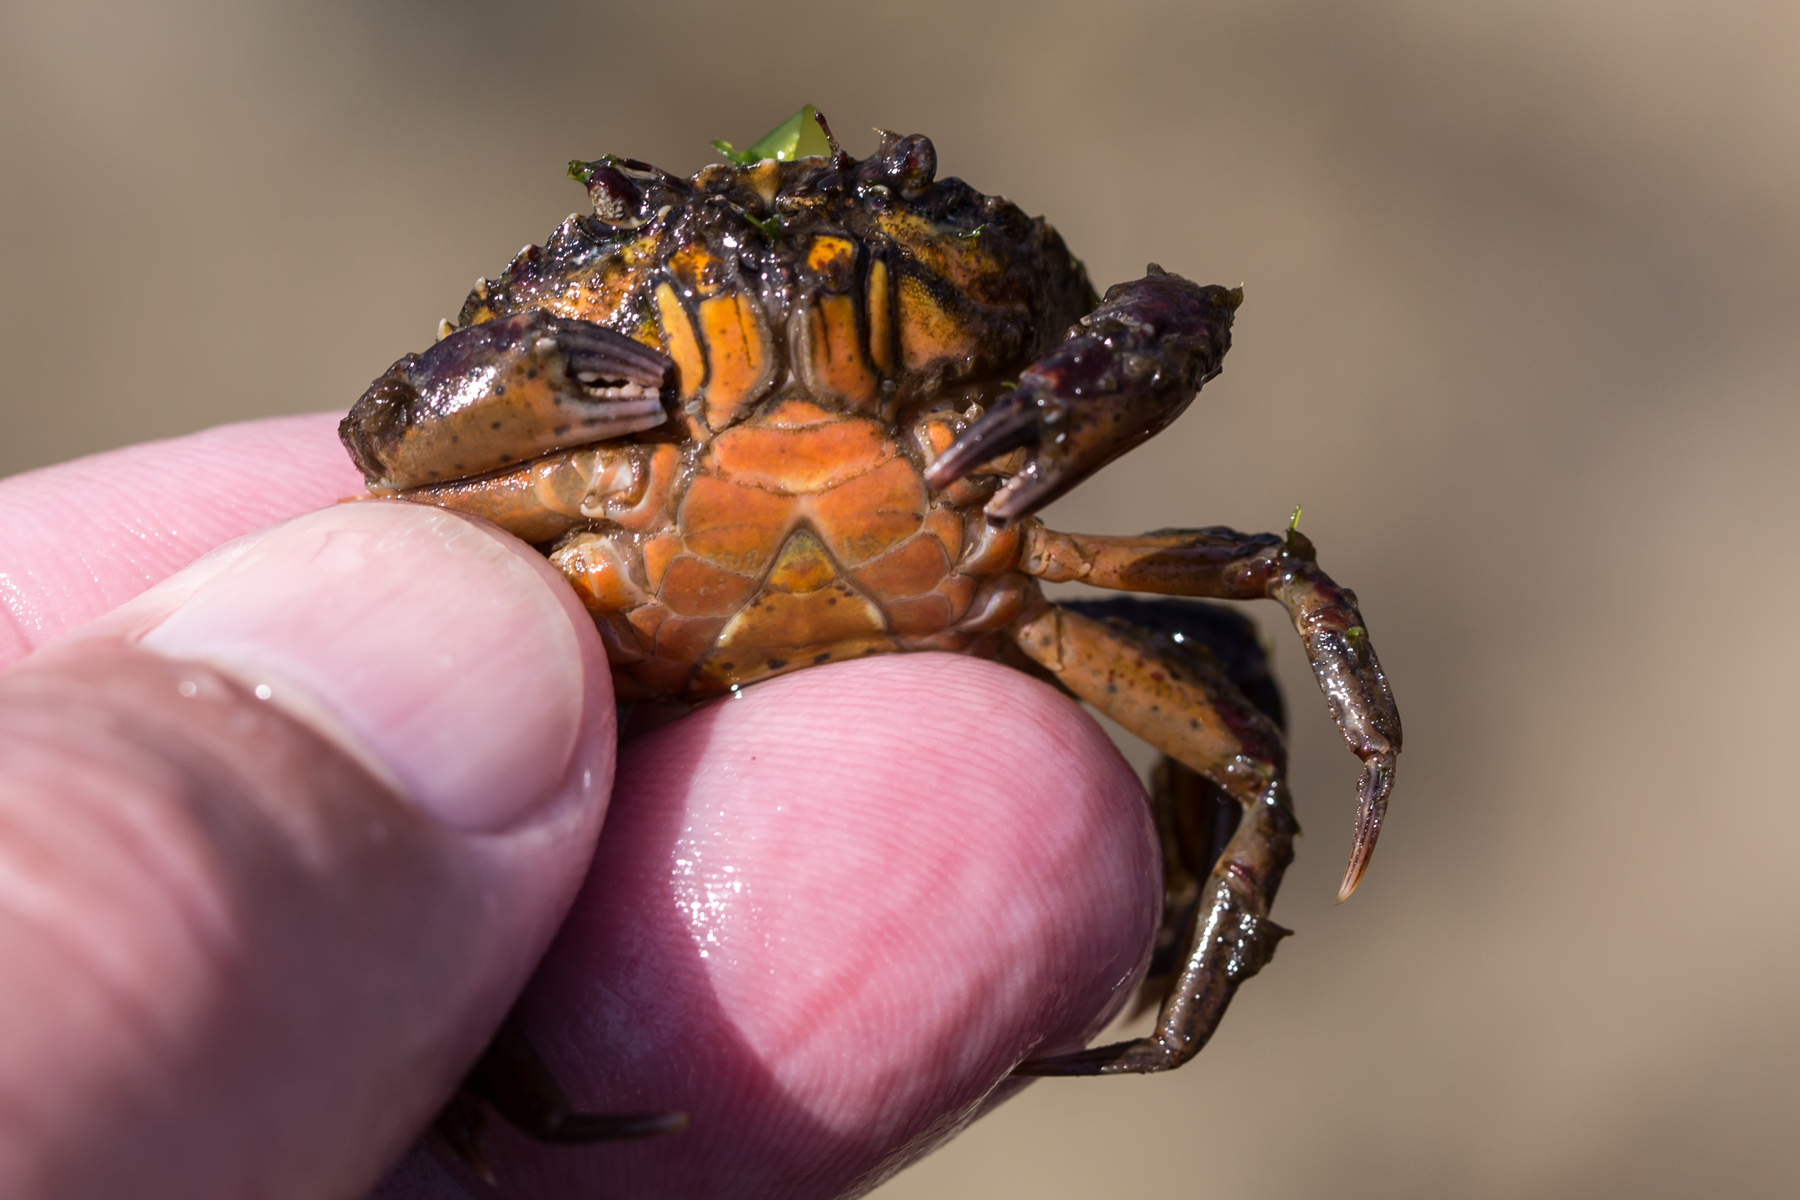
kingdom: Animalia
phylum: Arthropoda
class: Malacostraca
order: Decapoda
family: Carcinidae
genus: Carcinus
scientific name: Carcinus maenas
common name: European green crab
